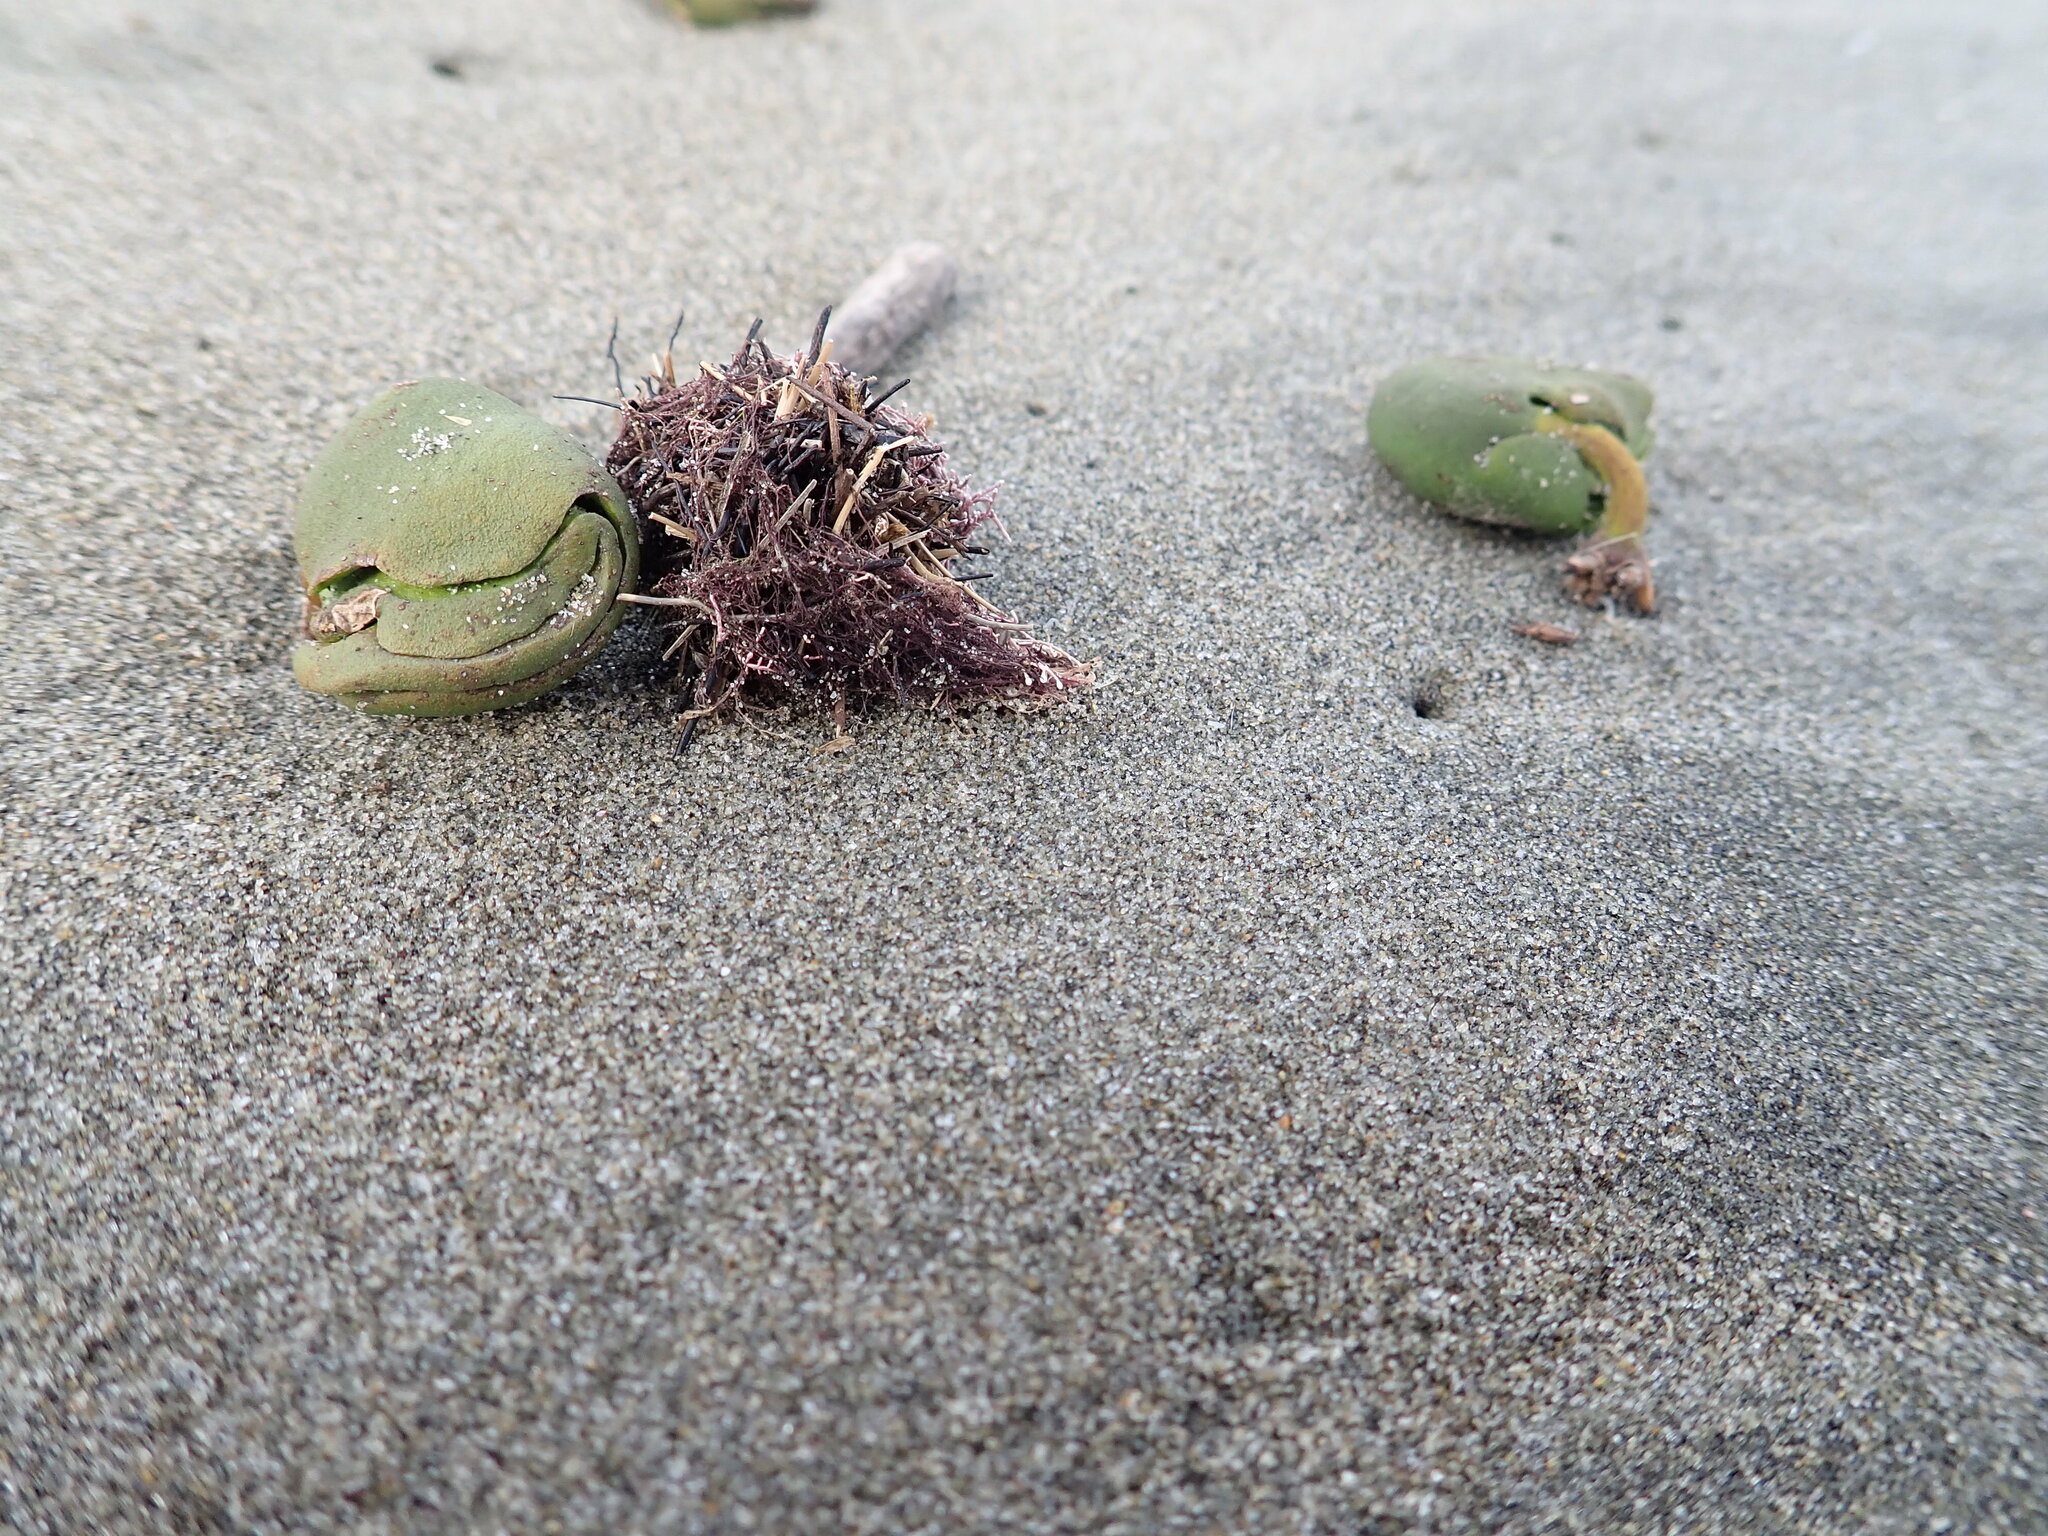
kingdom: Plantae
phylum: Tracheophyta
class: Magnoliopsida
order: Lamiales
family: Acanthaceae
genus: Avicennia
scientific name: Avicennia marina
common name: Gray mangrove
